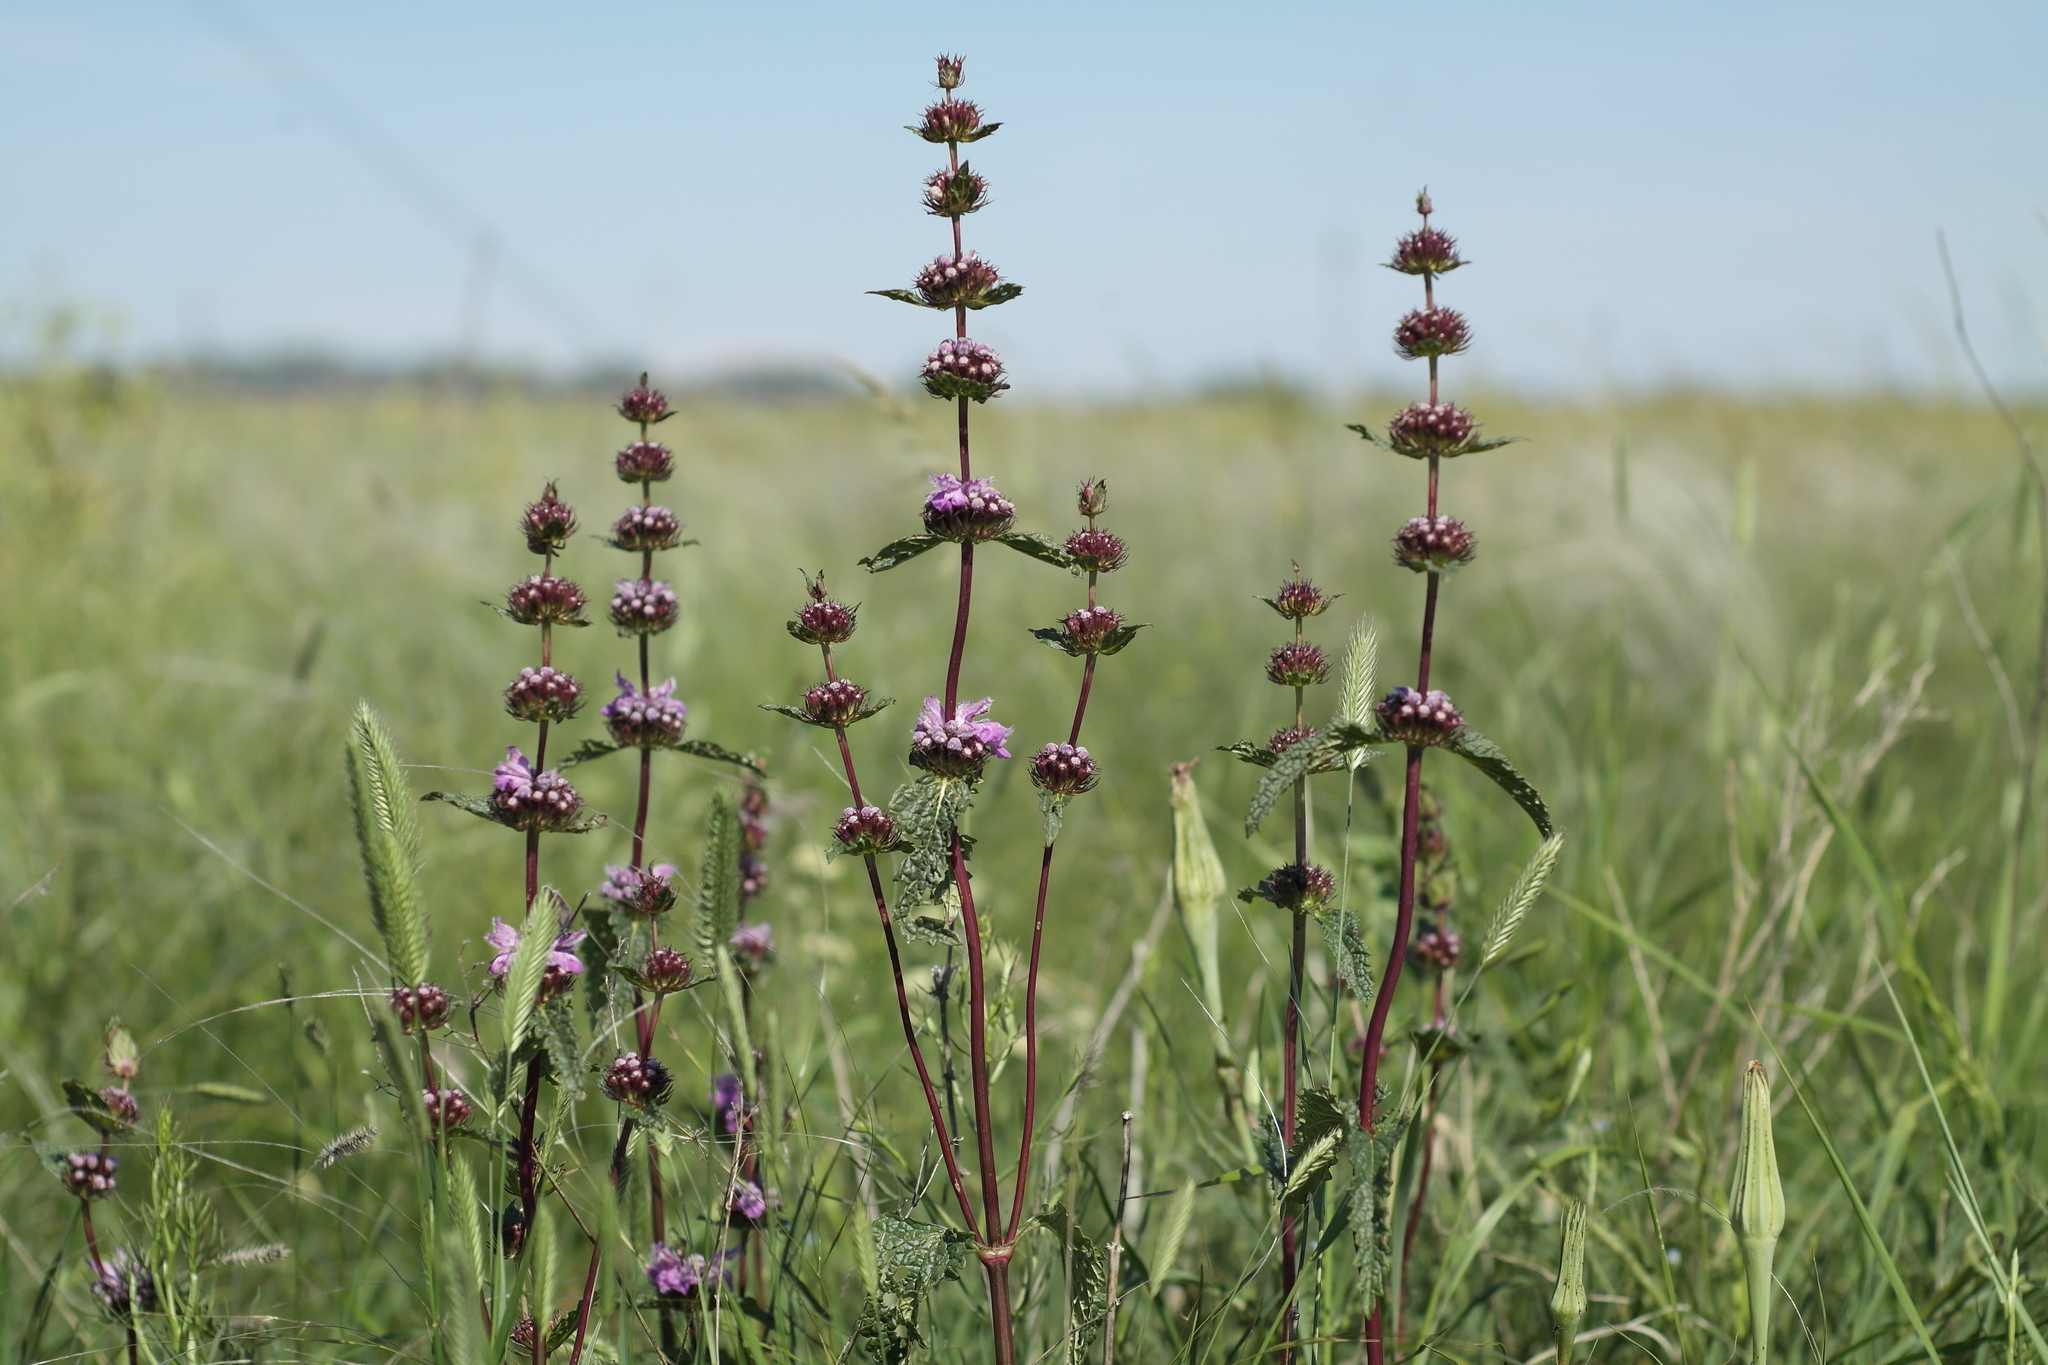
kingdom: Plantae
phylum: Tracheophyta
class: Magnoliopsida
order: Lamiales
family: Lamiaceae
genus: Phlomoides
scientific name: Phlomoides tuberosa
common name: Tuberous jerusalem sage
